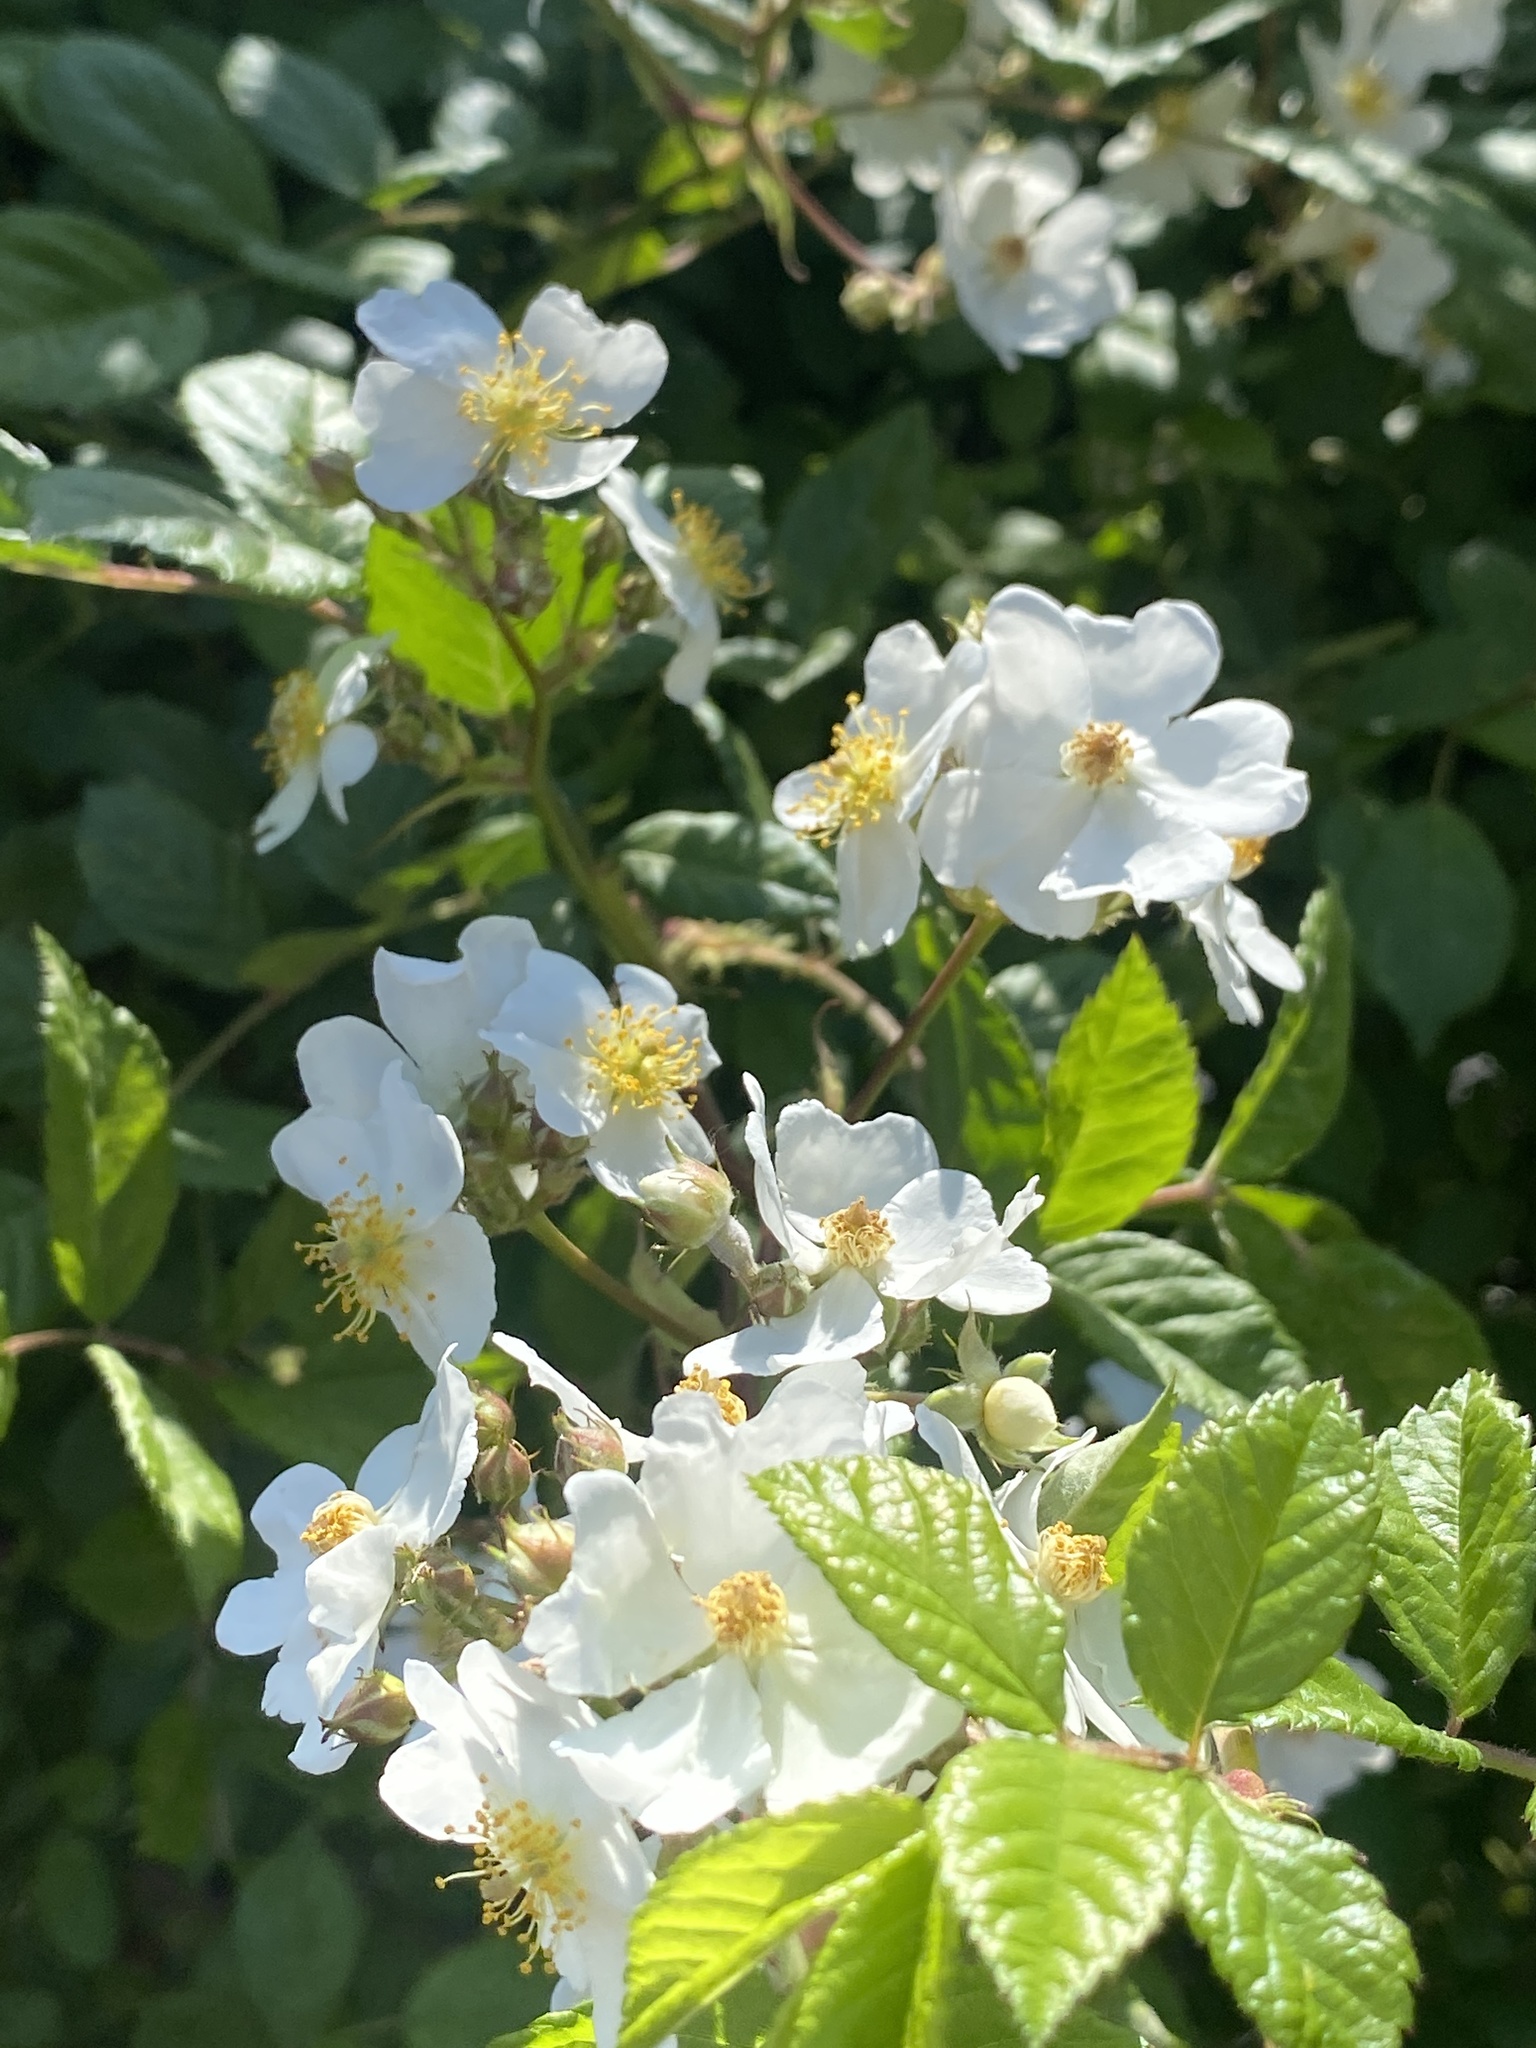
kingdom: Plantae
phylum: Tracheophyta
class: Magnoliopsida
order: Rosales
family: Rosaceae
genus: Rosa
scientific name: Rosa multiflora
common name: Multiflora rose
